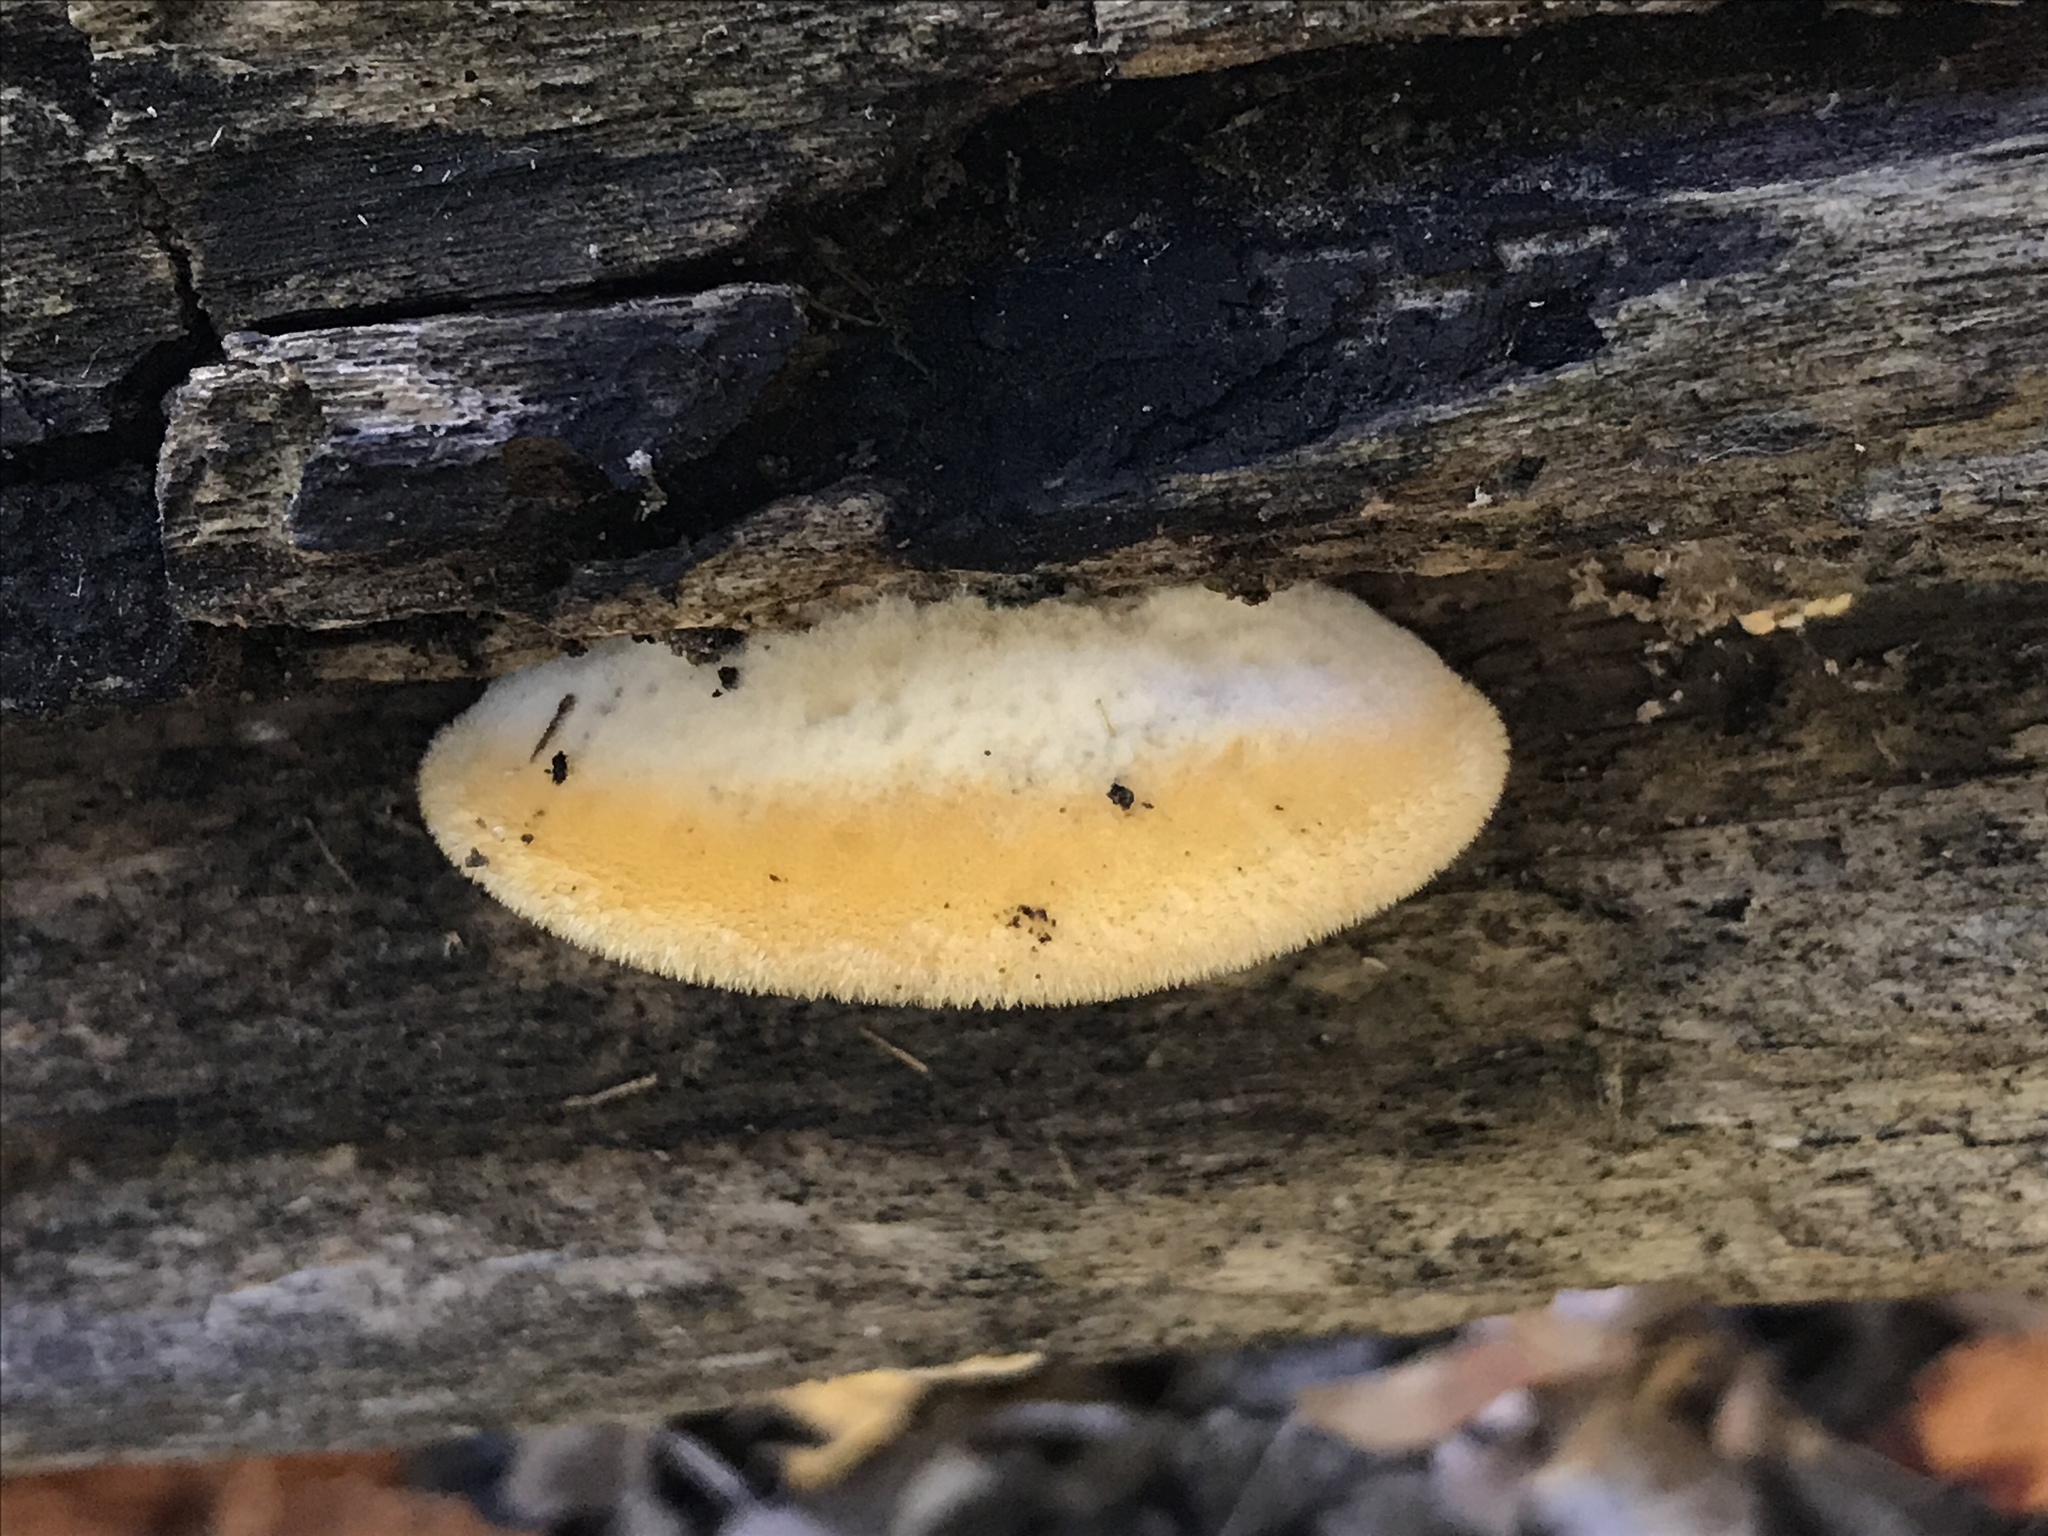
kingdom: Fungi
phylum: Basidiomycota
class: Agaricomycetes
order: Agaricales
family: Phyllotopsidaceae
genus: Phyllotopsis
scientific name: Phyllotopsis nidulans
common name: Orange mock oyster
